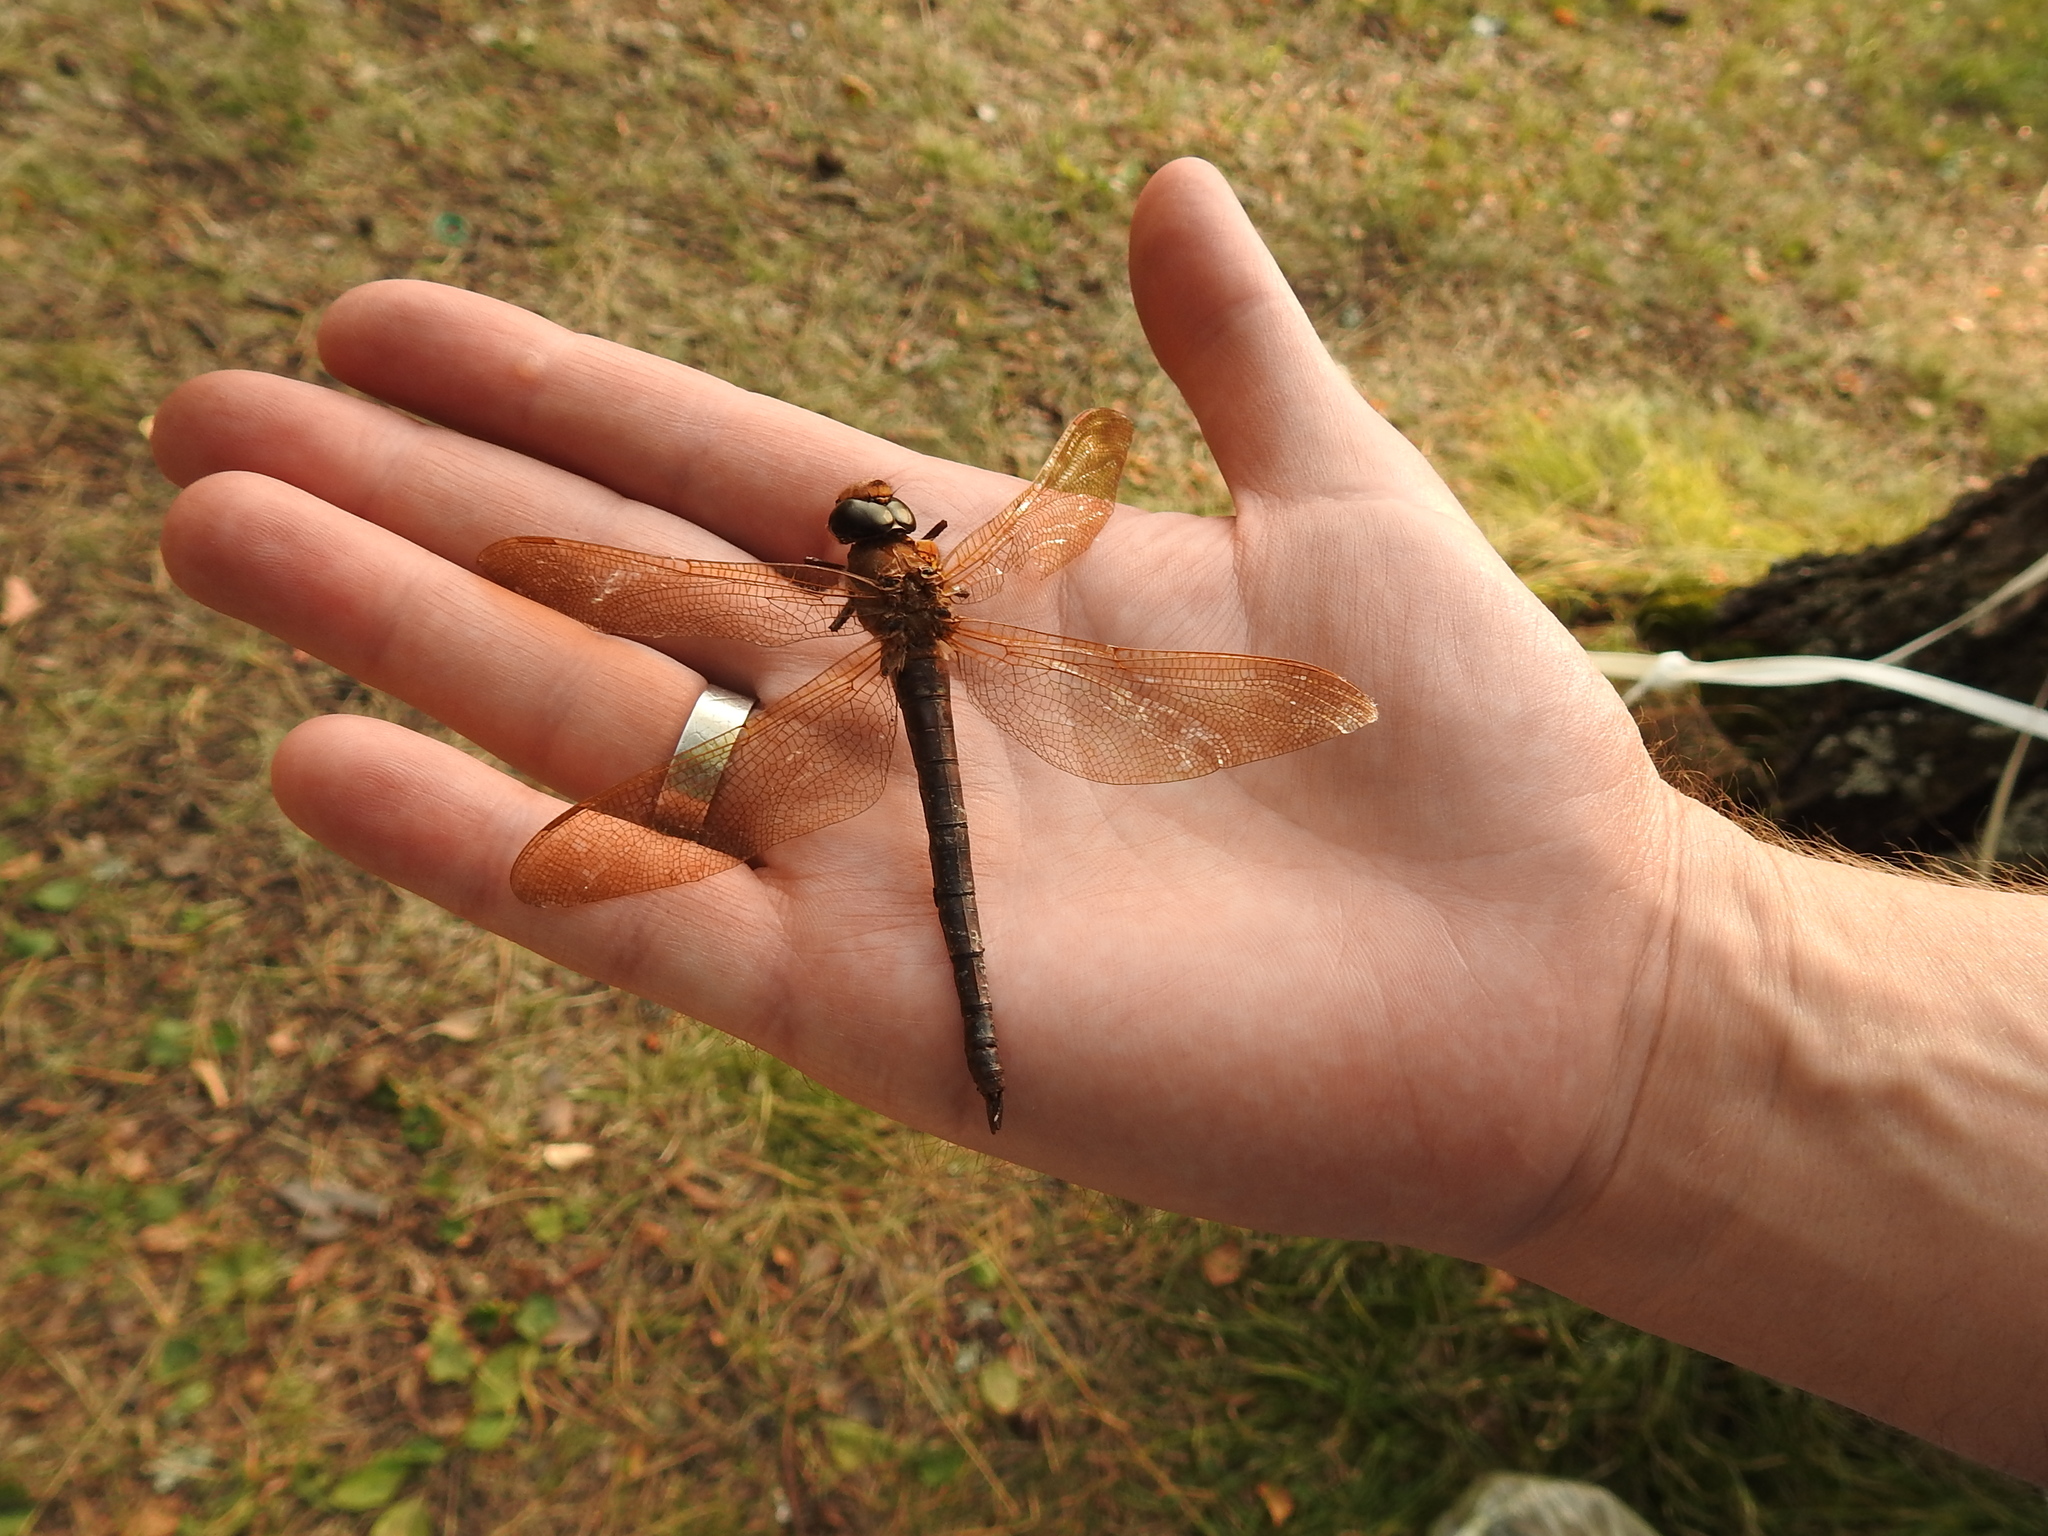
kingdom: Animalia
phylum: Arthropoda
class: Insecta
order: Odonata
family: Aeshnidae
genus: Aeshna
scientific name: Aeshna grandis
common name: Brown hawker
